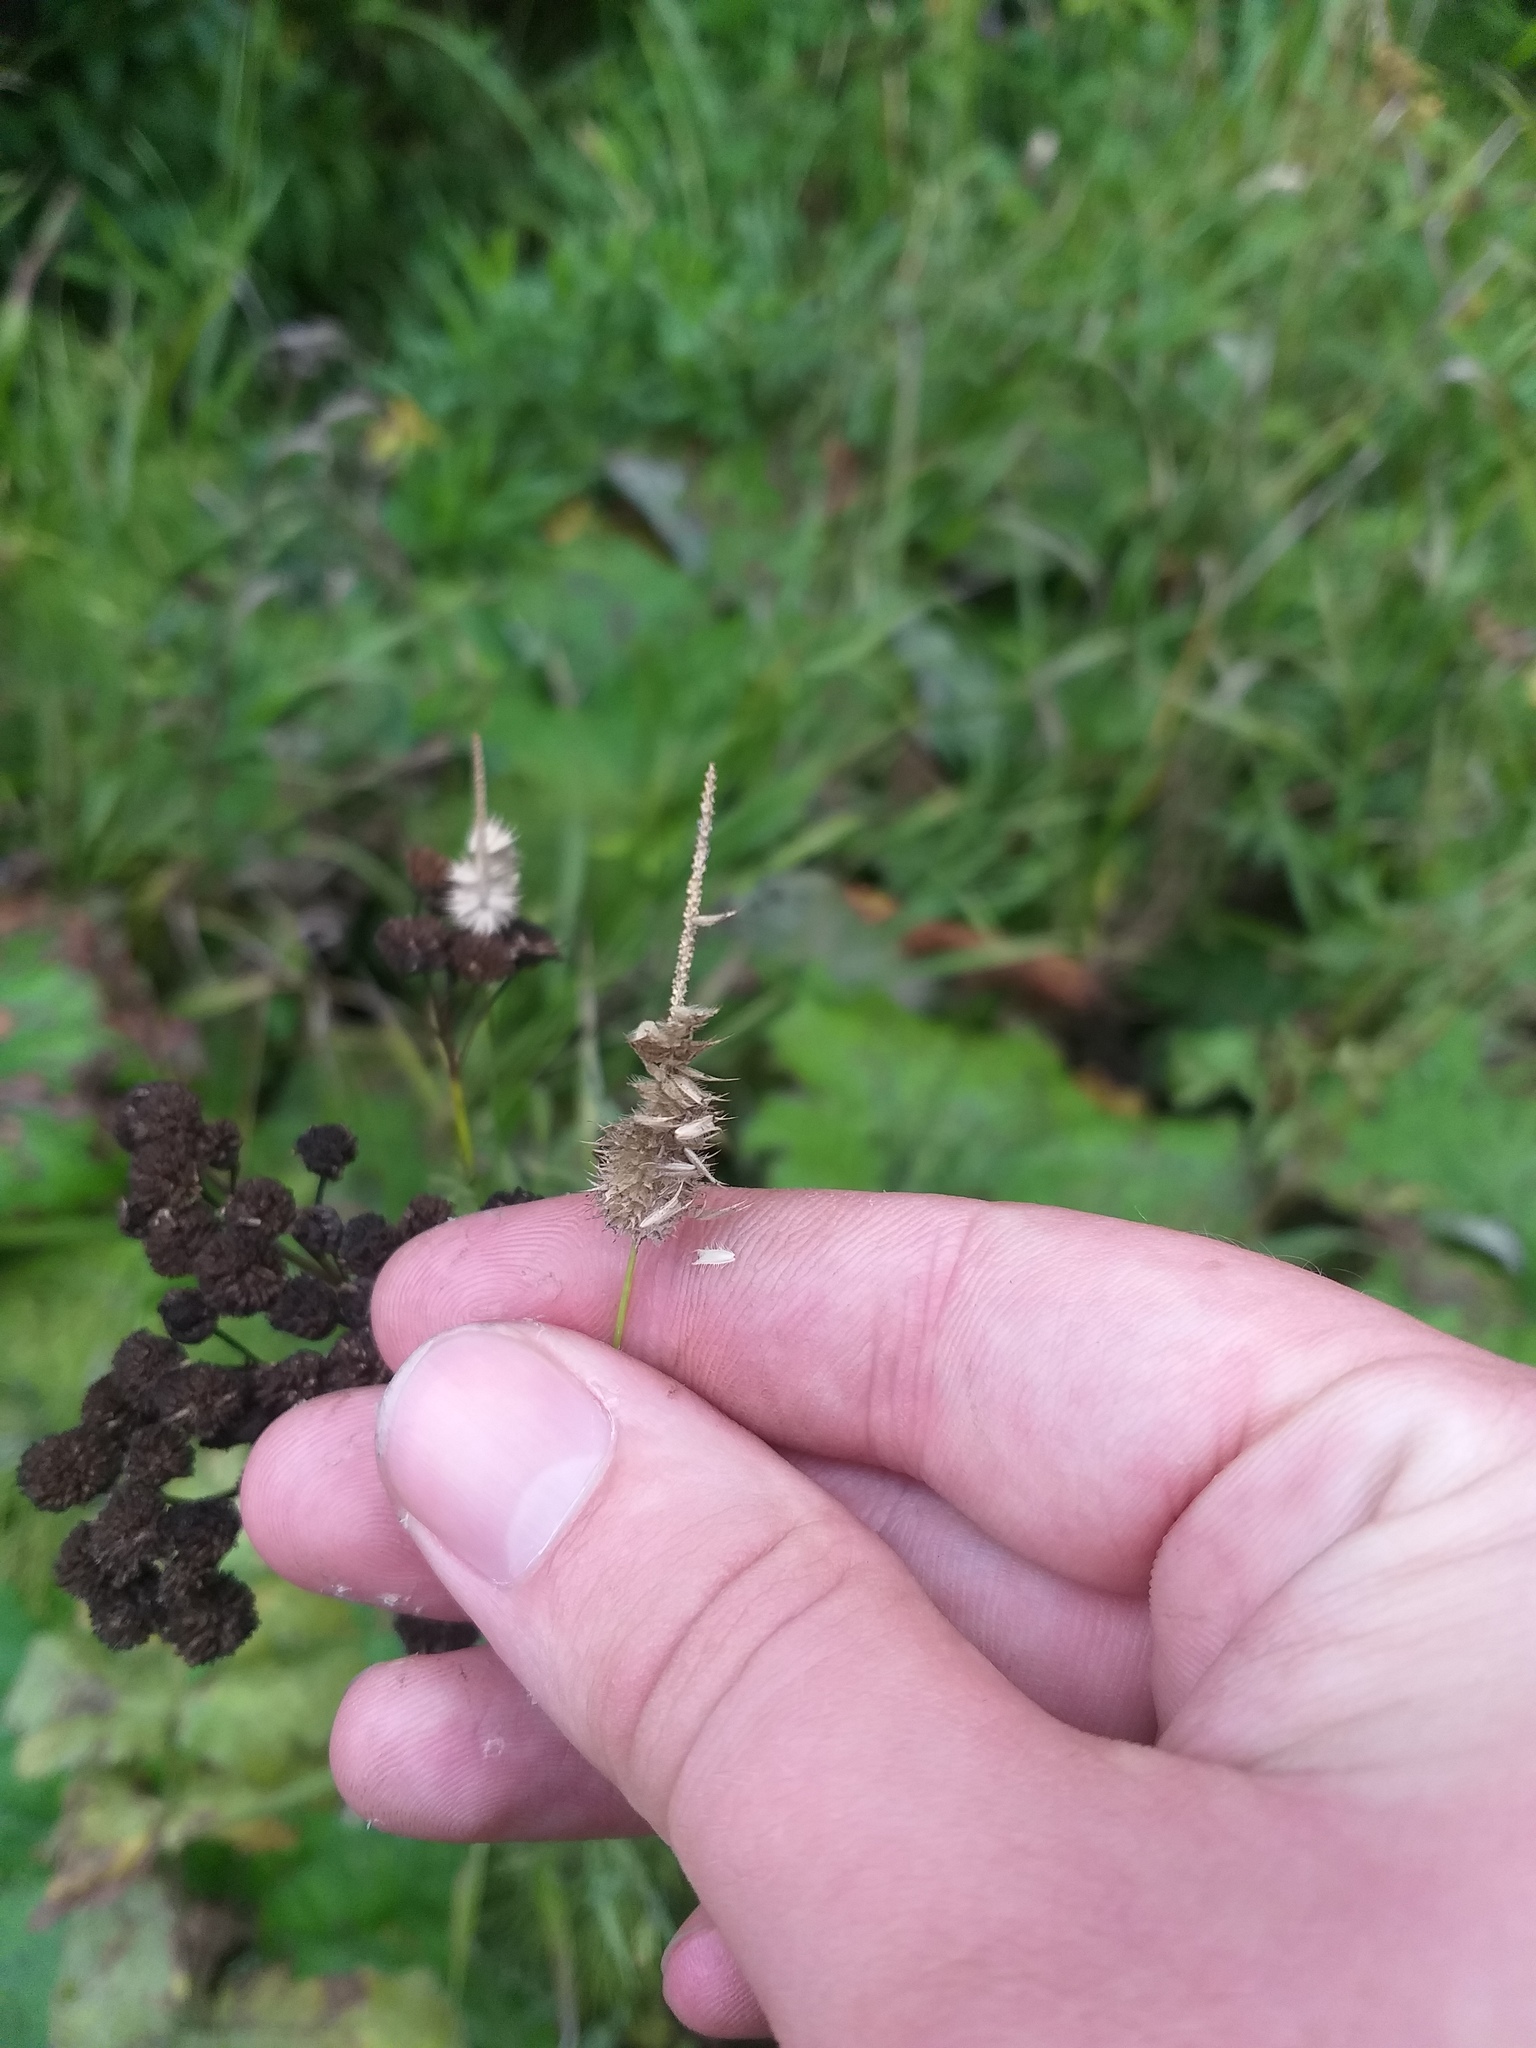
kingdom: Plantae
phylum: Tracheophyta
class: Liliopsida
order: Poales
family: Poaceae
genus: Phleum
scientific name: Phleum pratense
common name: Timothy grass
